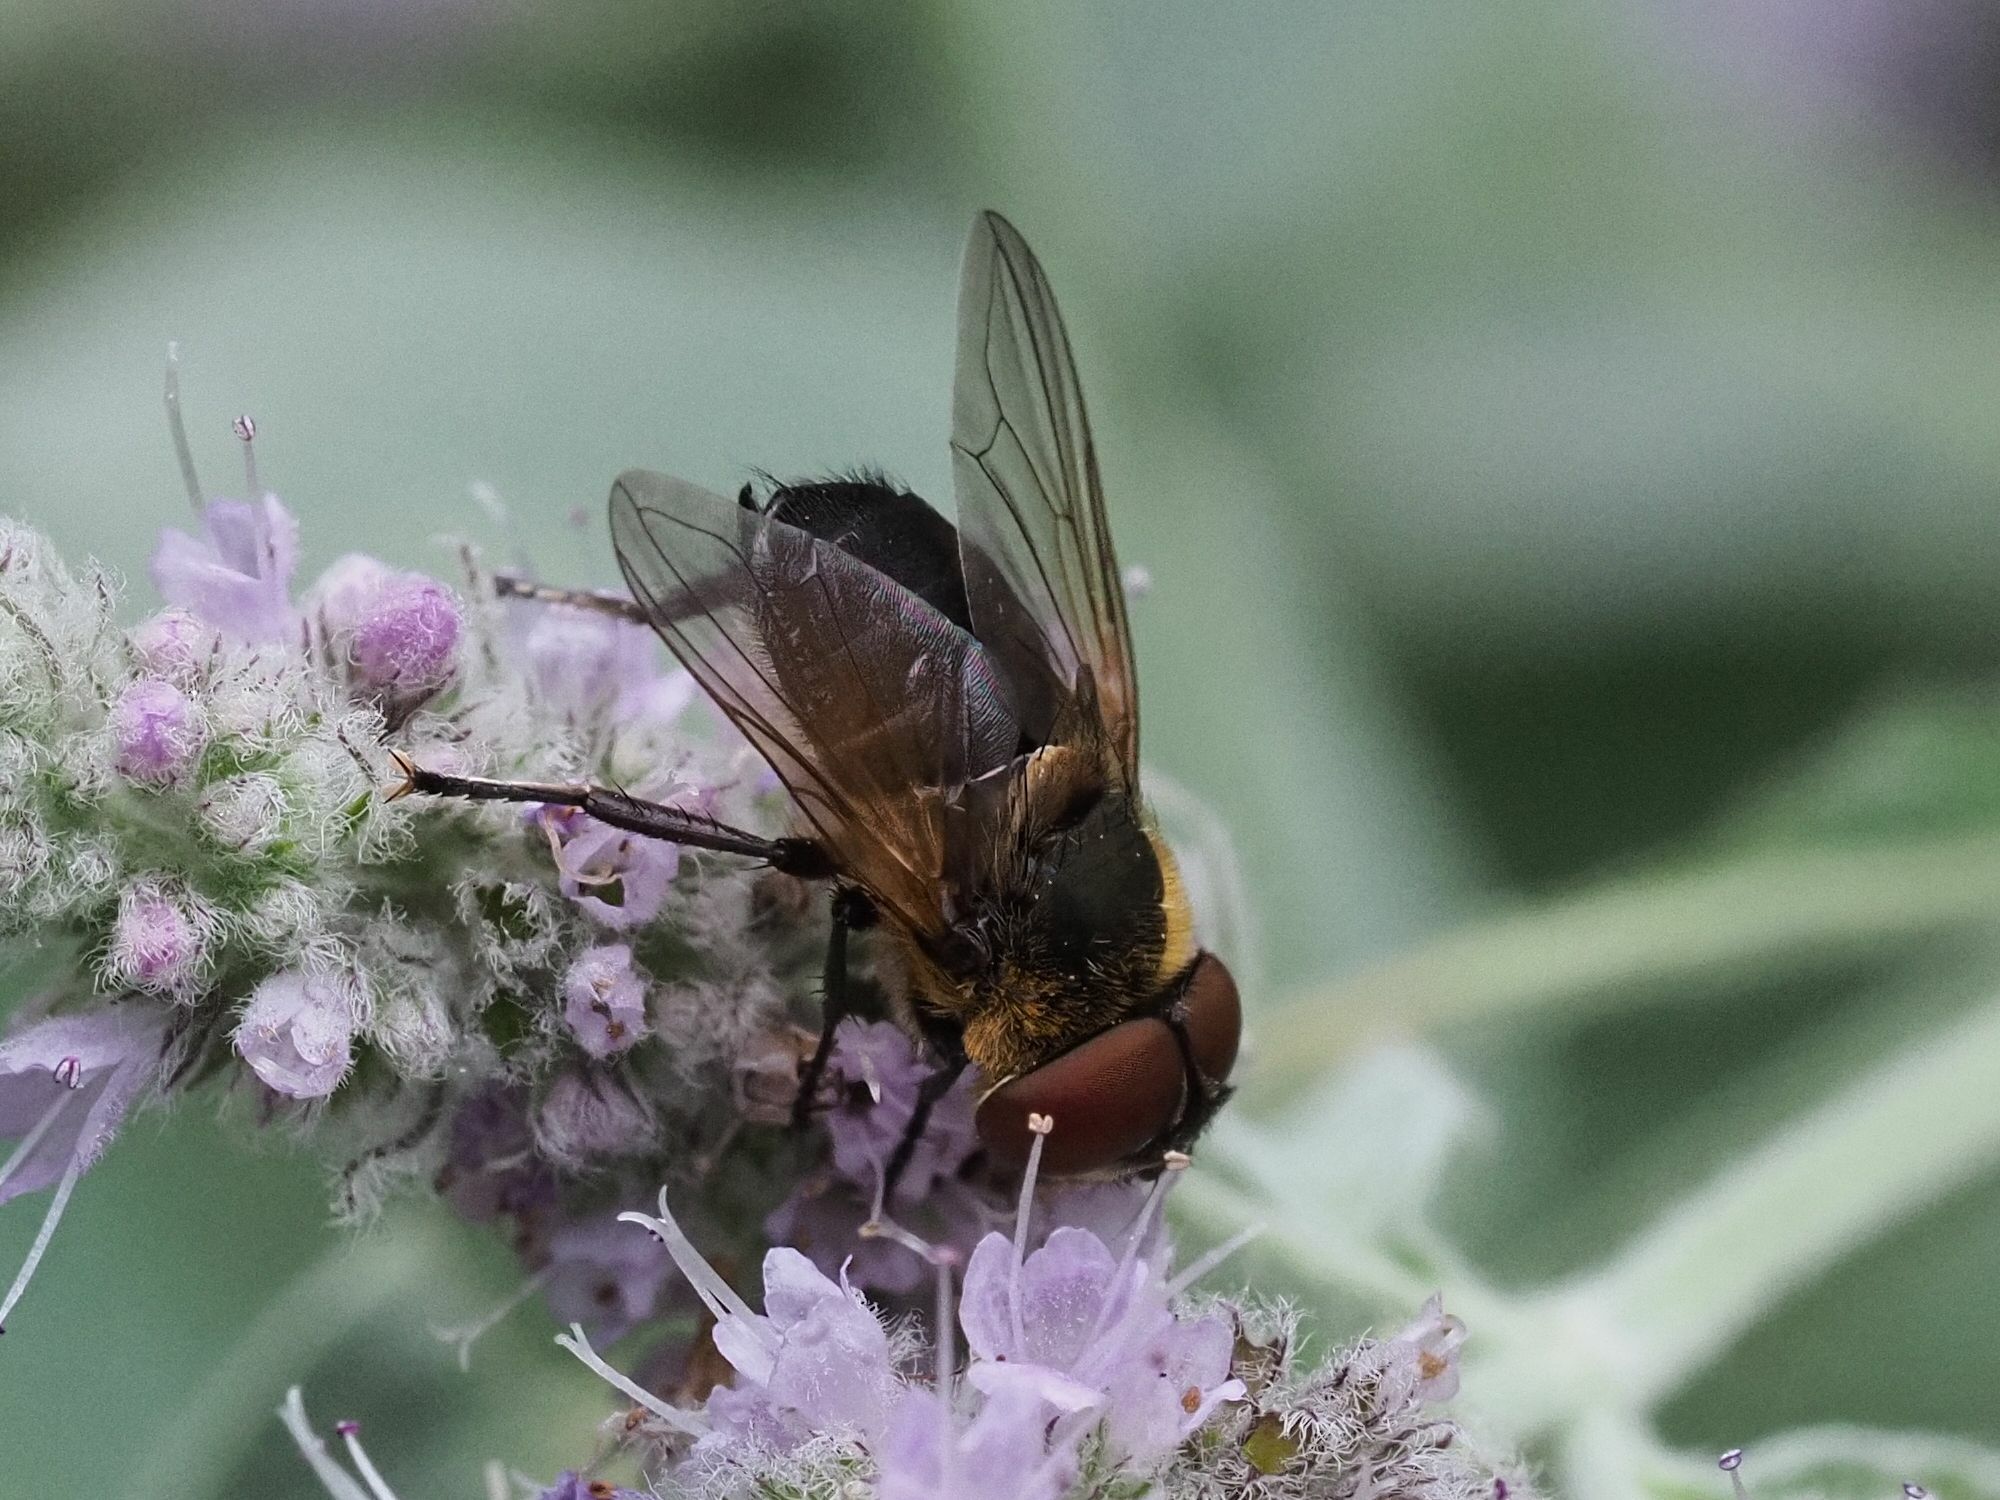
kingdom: Animalia
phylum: Arthropoda
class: Insecta
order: Diptera
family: Tachinidae
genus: Phasia
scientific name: Phasia hemiptera
